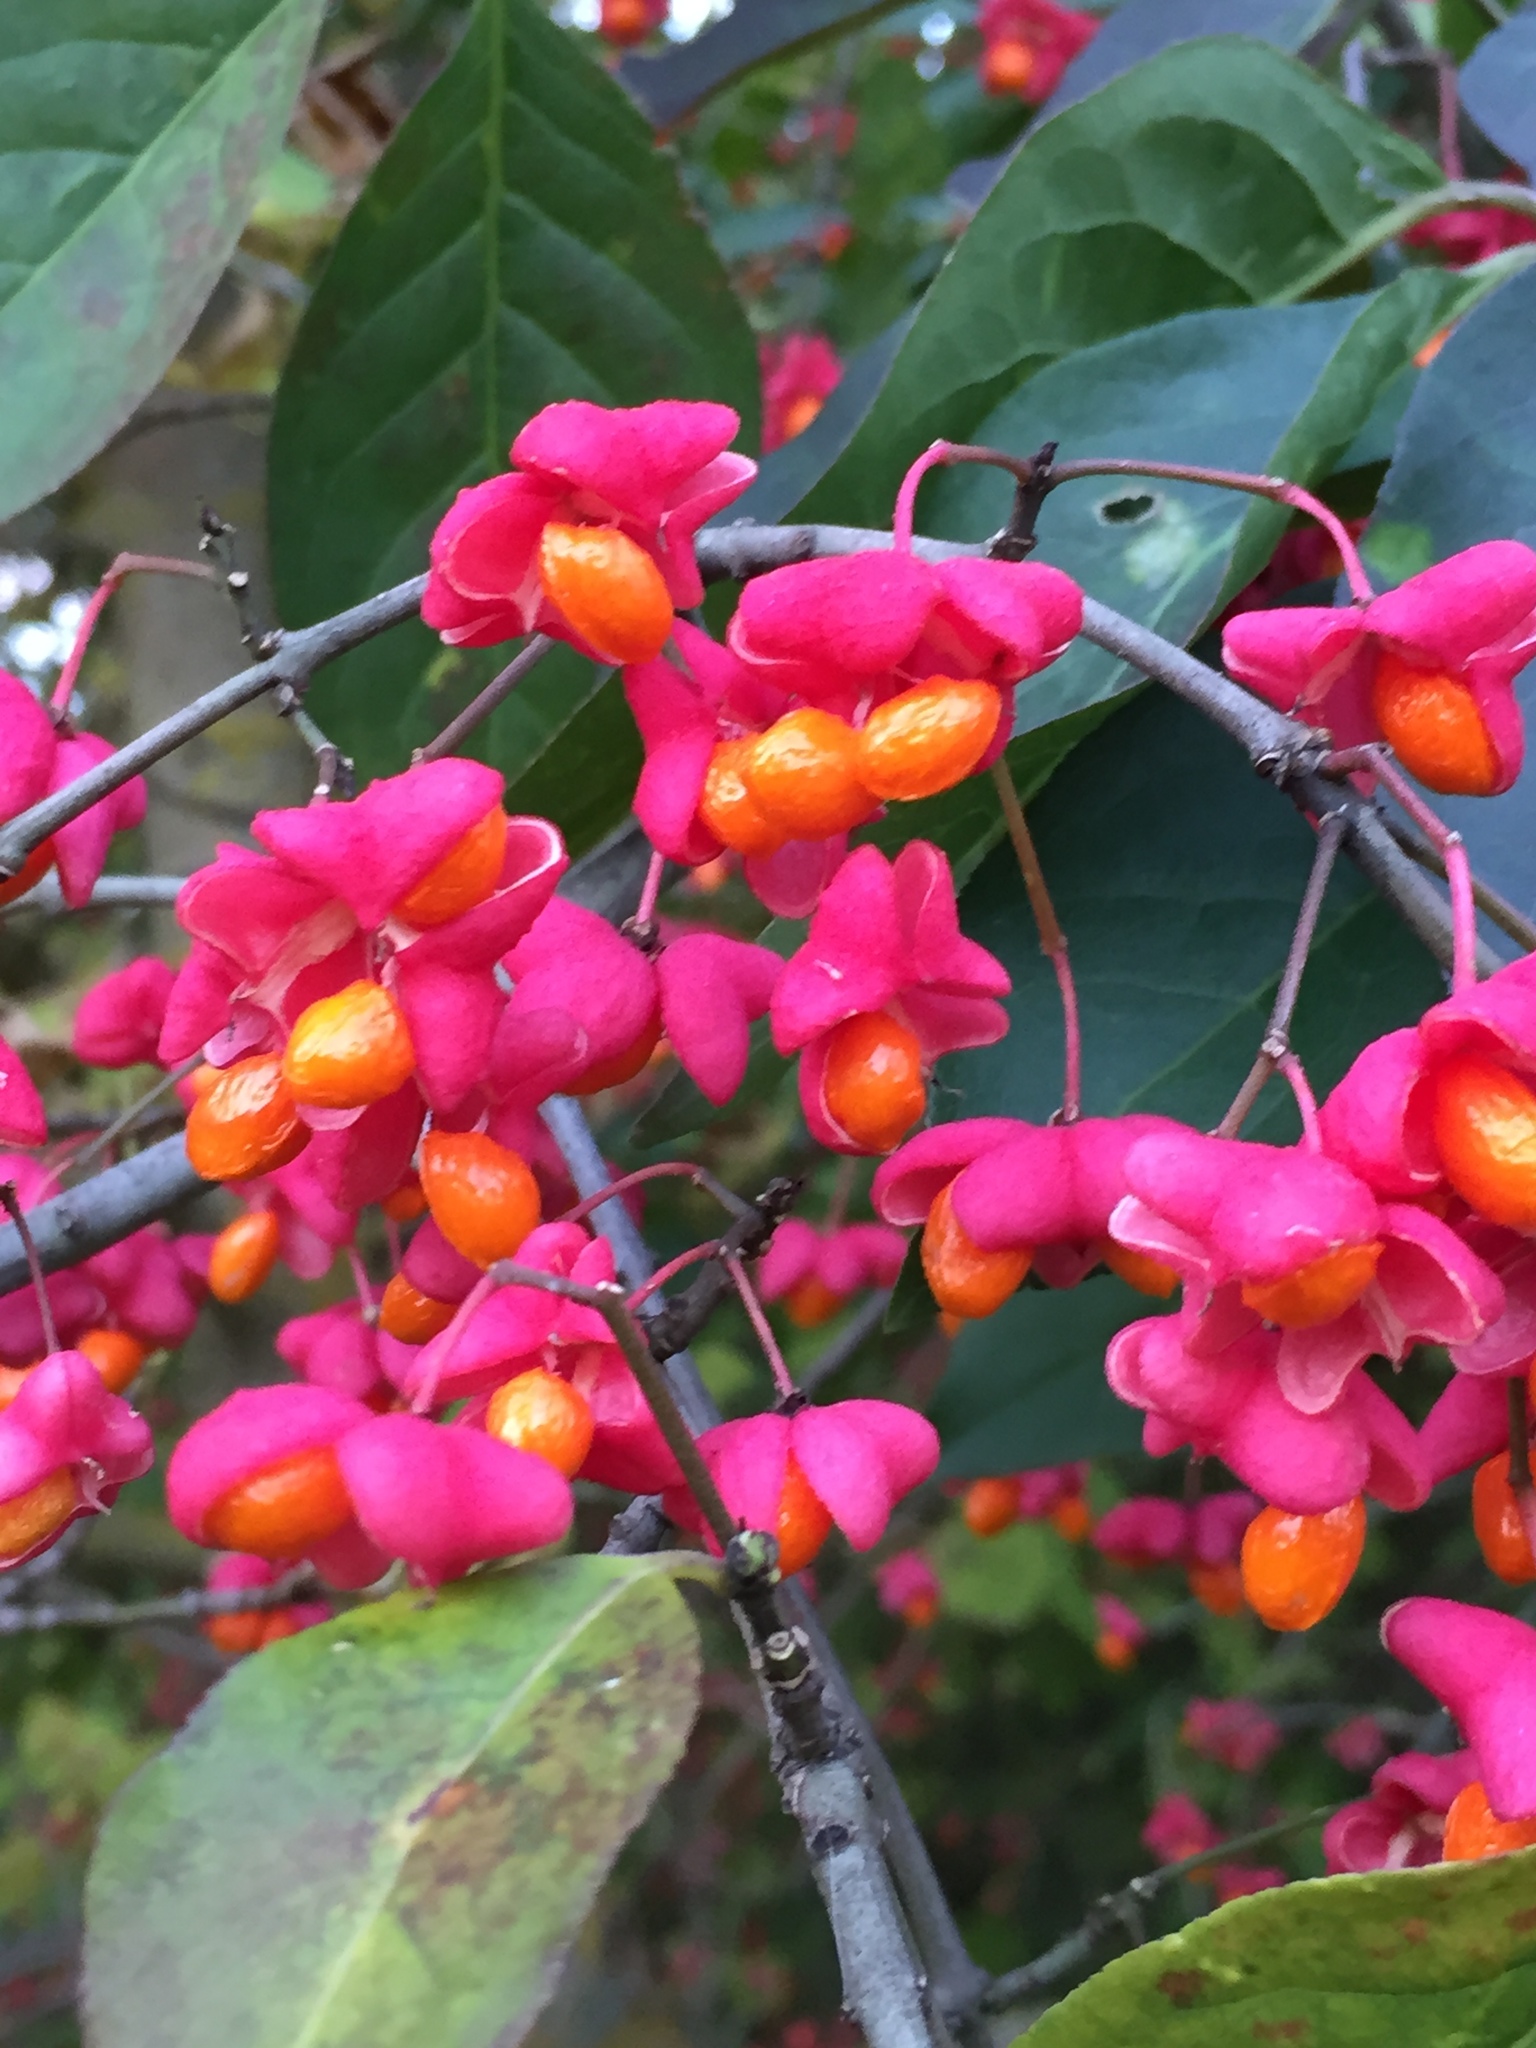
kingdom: Plantae
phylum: Tracheophyta
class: Magnoliopsida
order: Celastrales
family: Celastraceae
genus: Euonymus
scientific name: Euonymus europaeus
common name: Spindle
